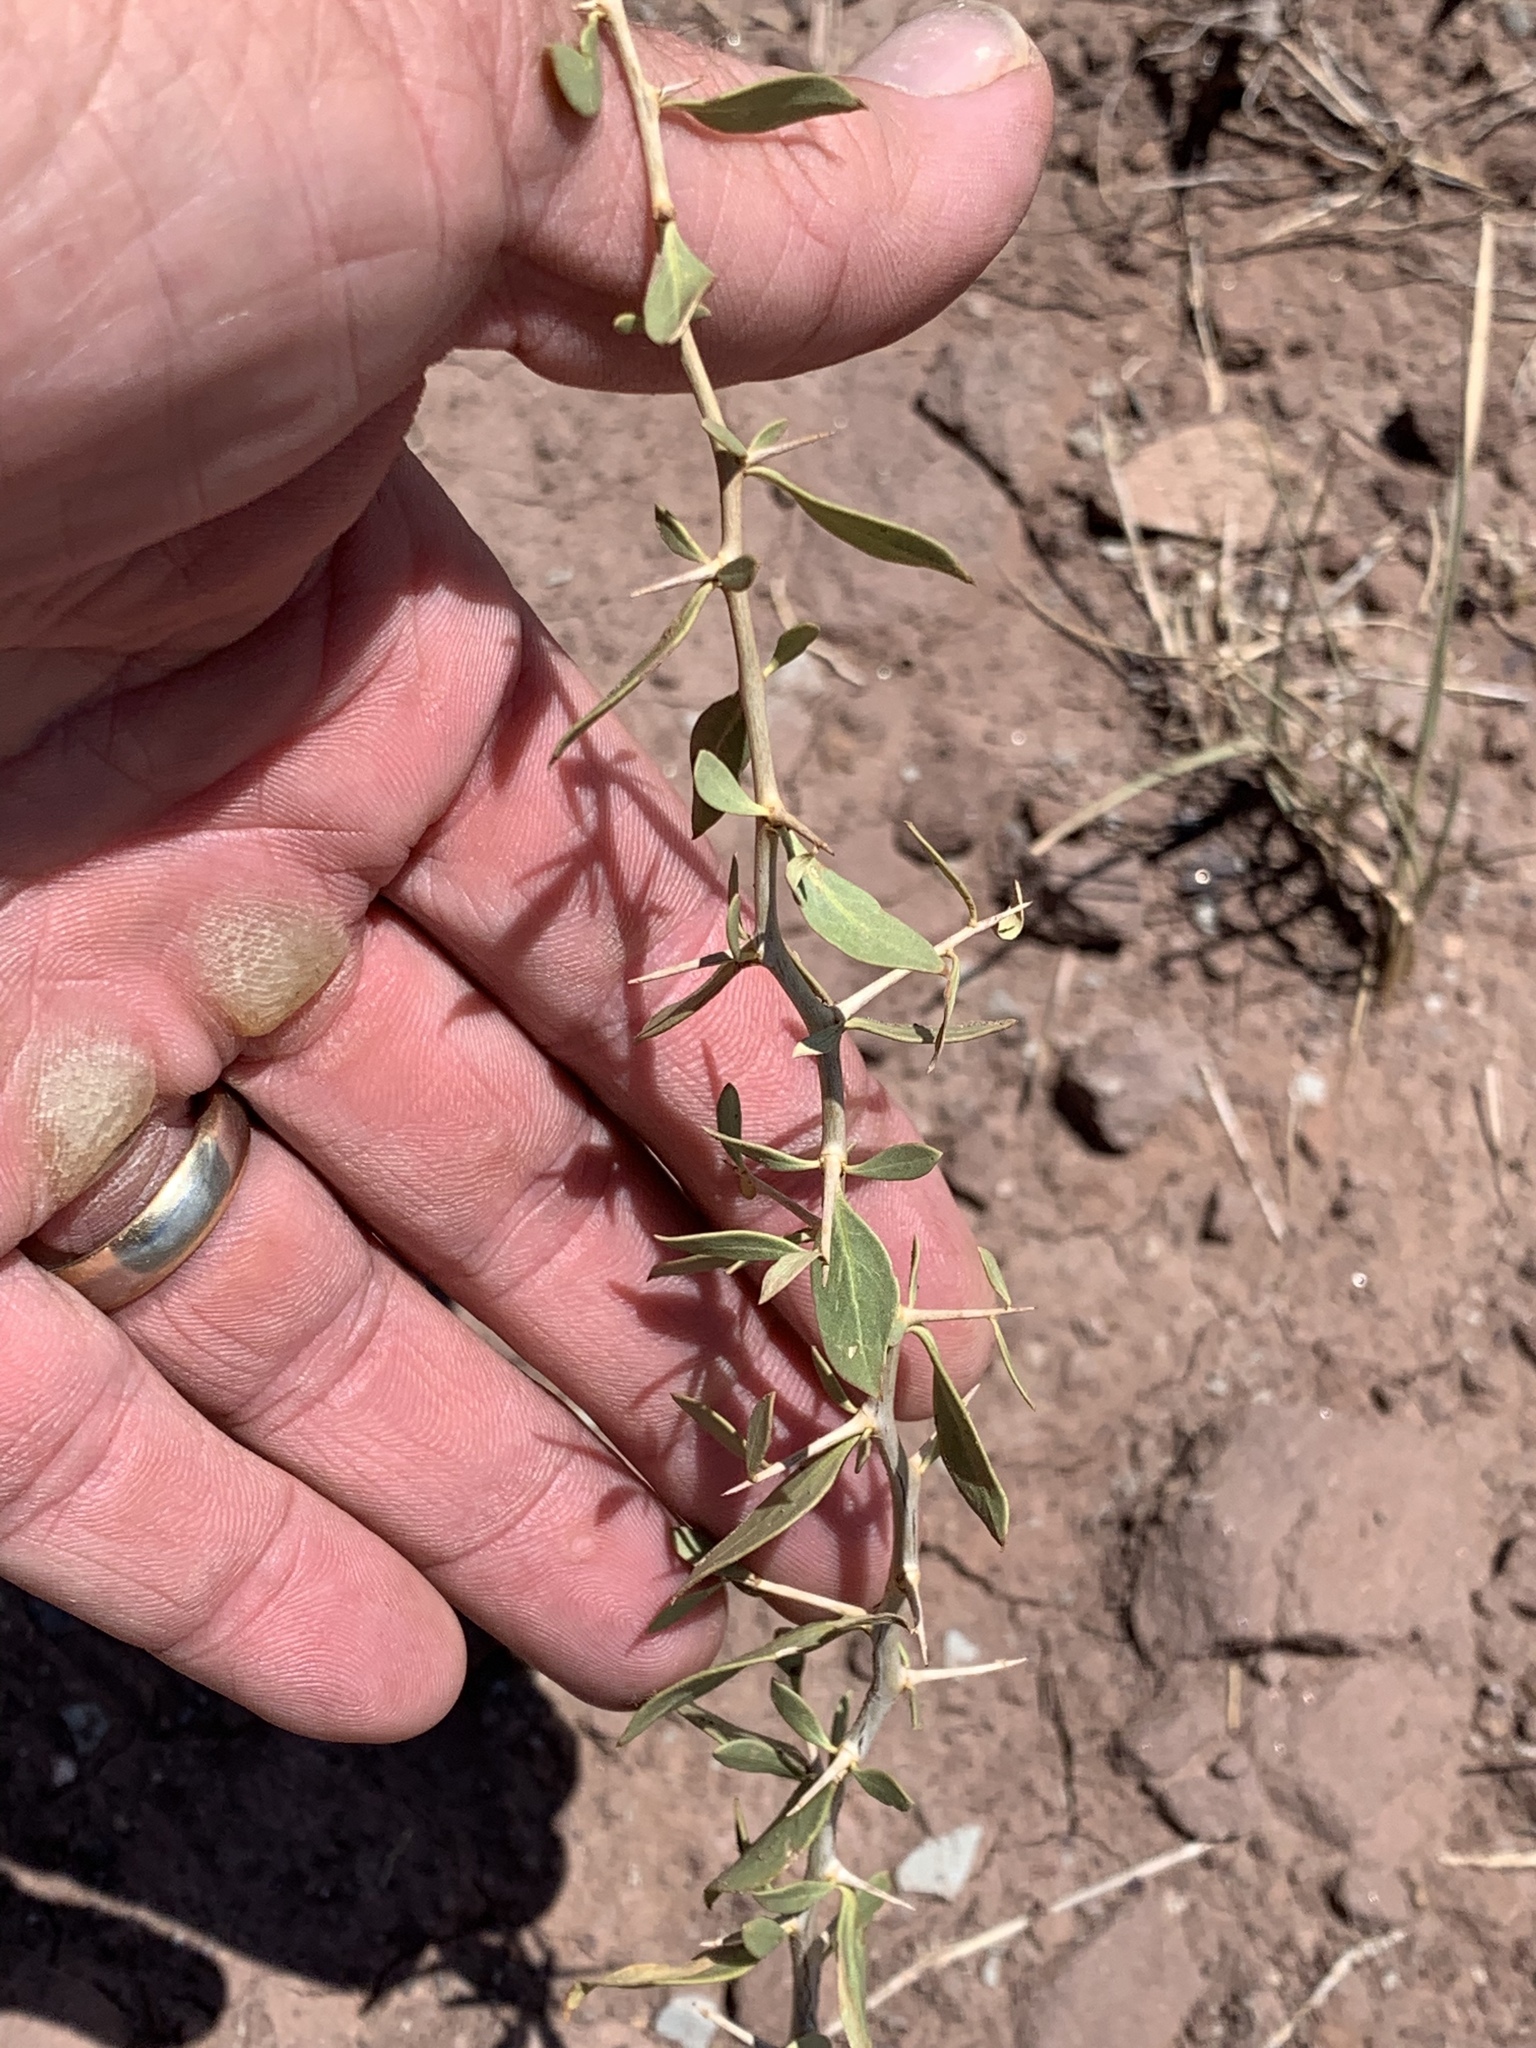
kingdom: Plantae
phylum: Tracheophyta
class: Magnoliopsida
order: Solanales
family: Solanaceae
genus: Lycium
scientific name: Lycium pallidum
